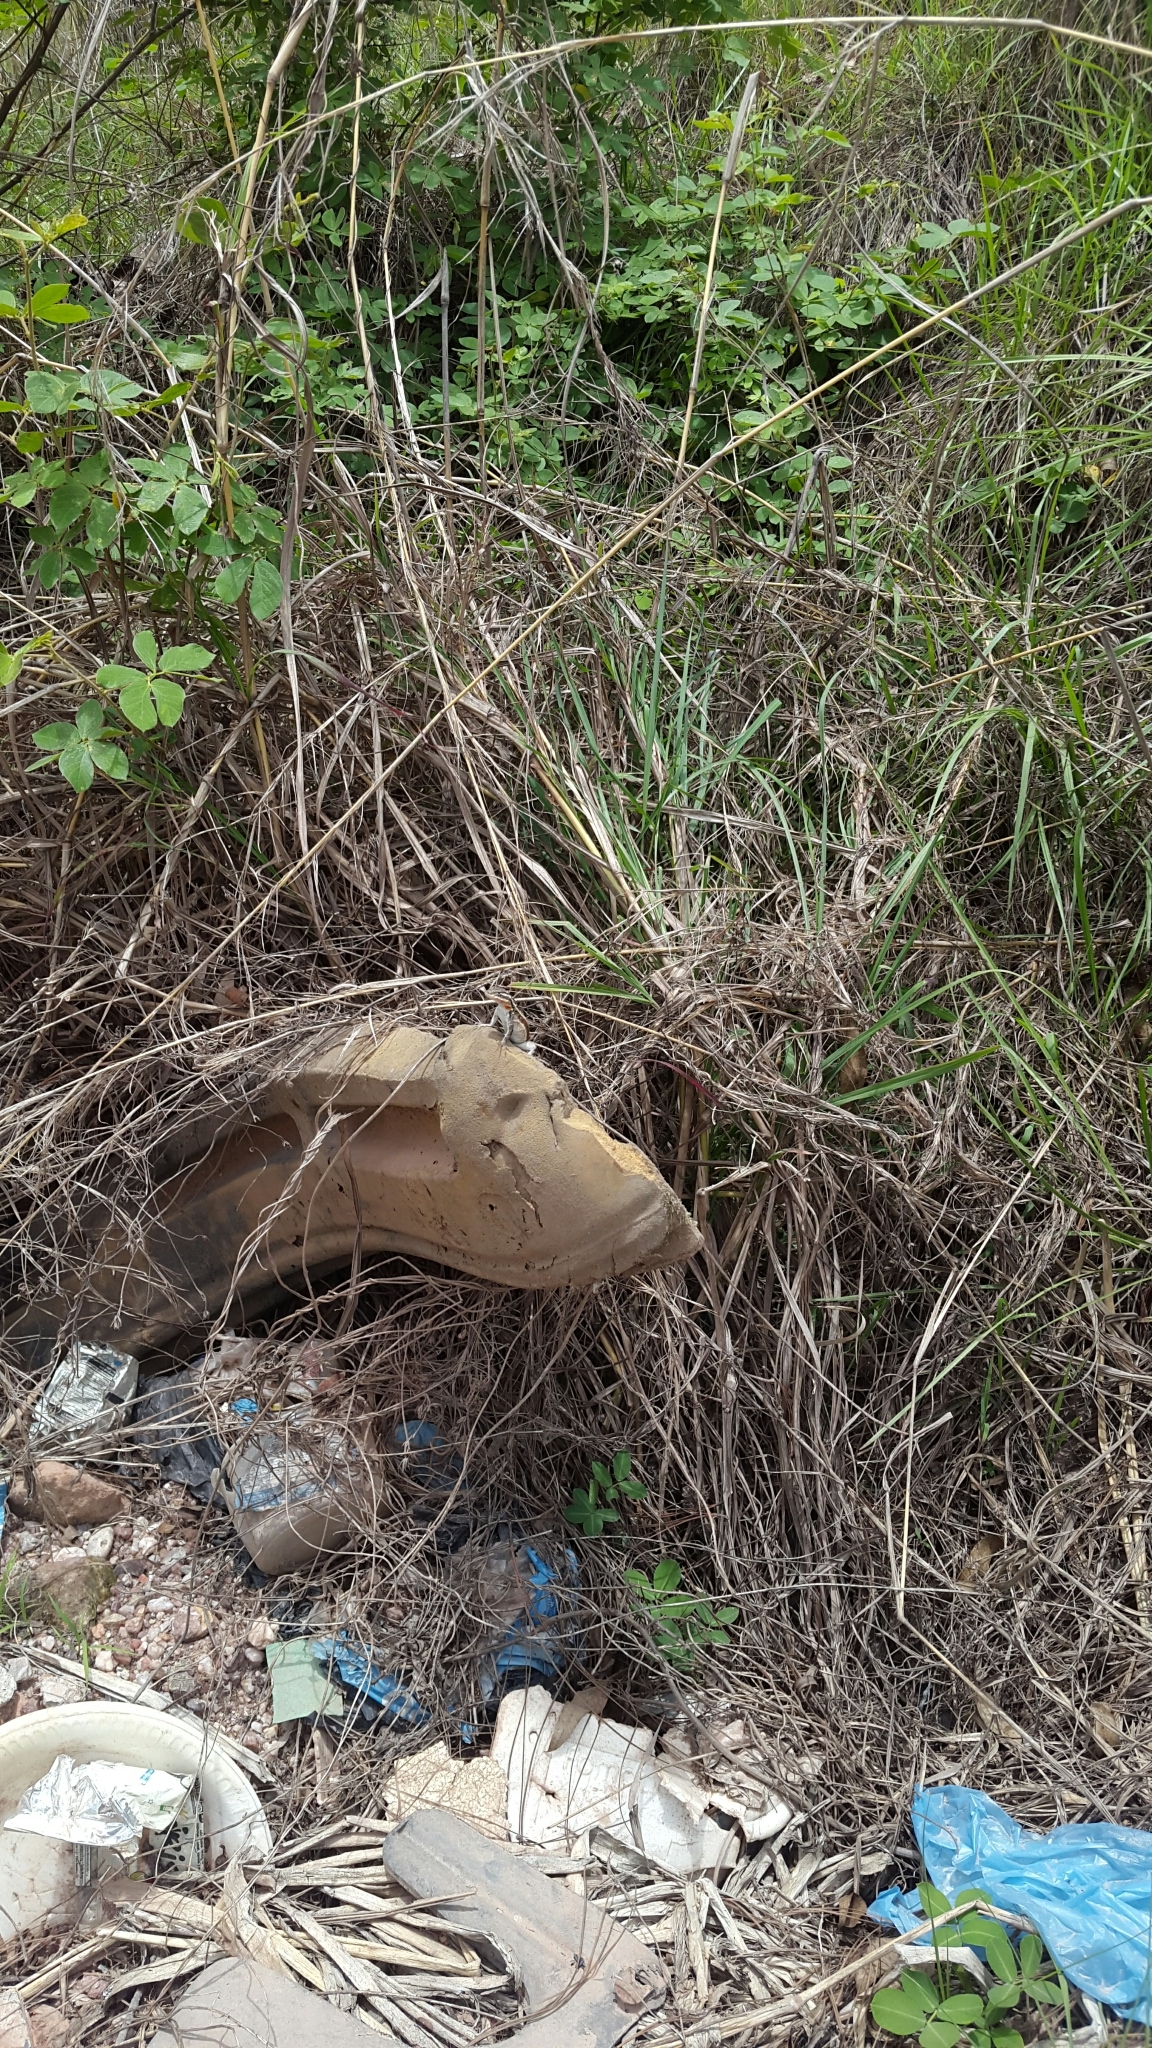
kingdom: Animalia
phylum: Chordata
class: Squamata
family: Phrynosomatidae
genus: Sceloporus
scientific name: Sceloporus variabilis
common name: Rosebelly lizard
